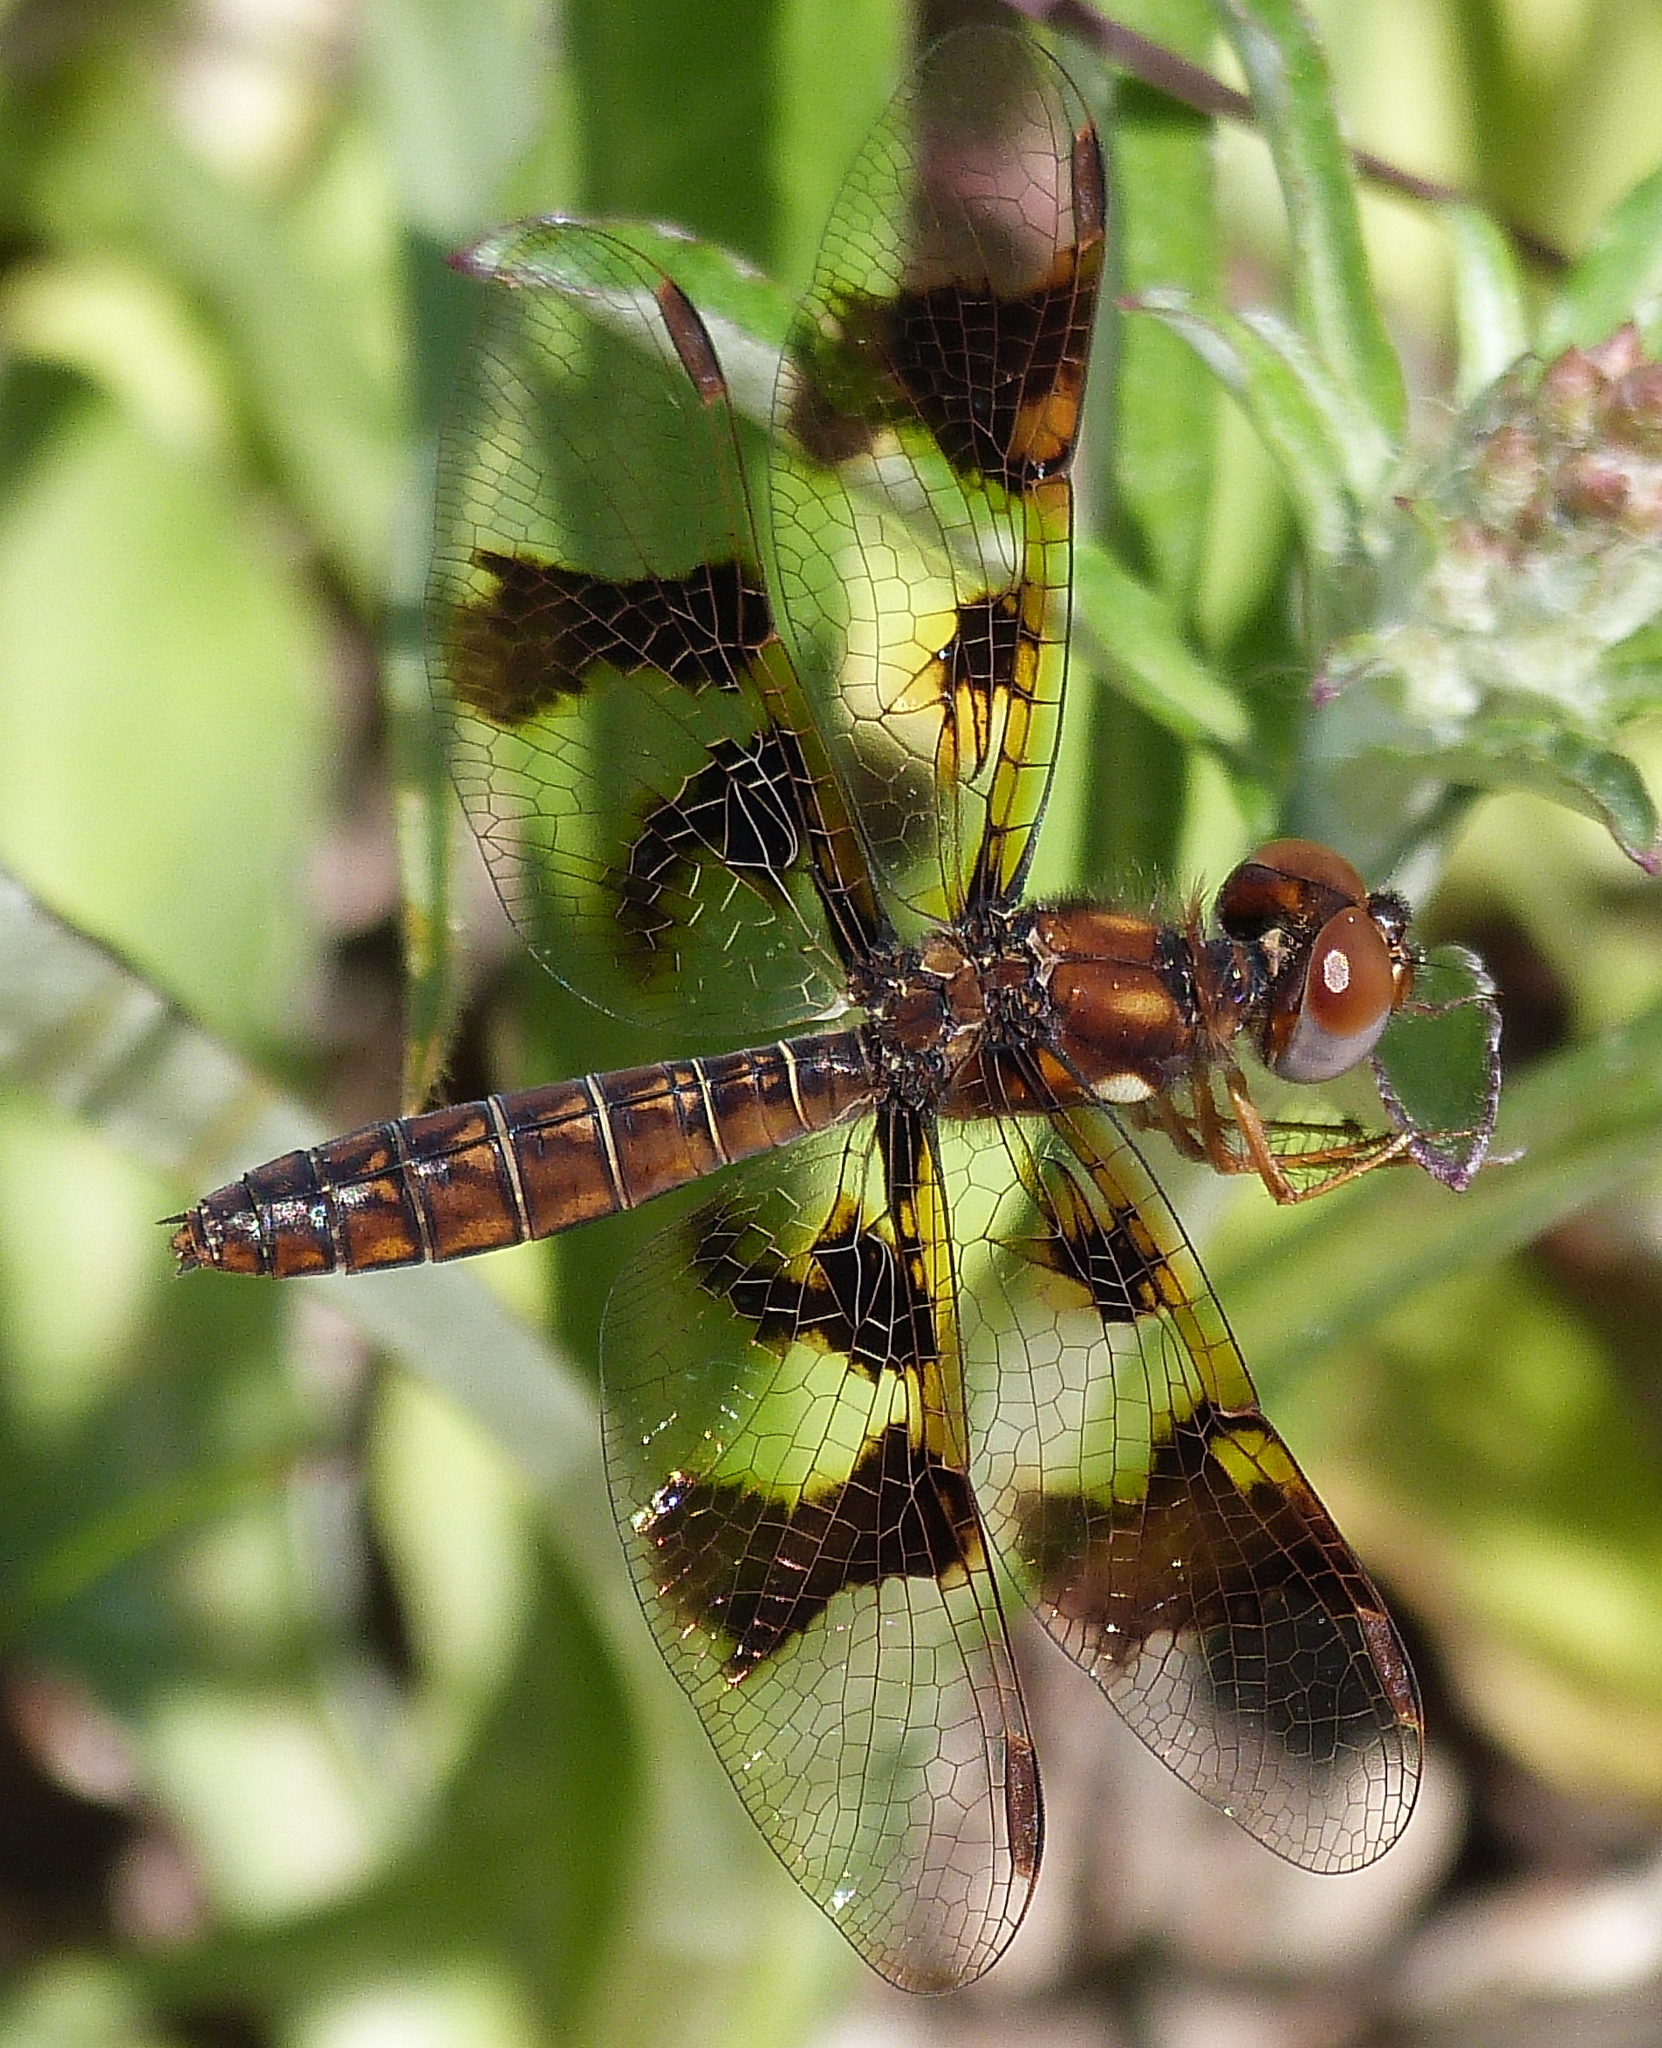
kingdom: Animalia
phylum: Arthropoda
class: Insecta
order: Odonata
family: Libellulidae
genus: Perithemis
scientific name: Perithemis tenera
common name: Eastern amberwing
